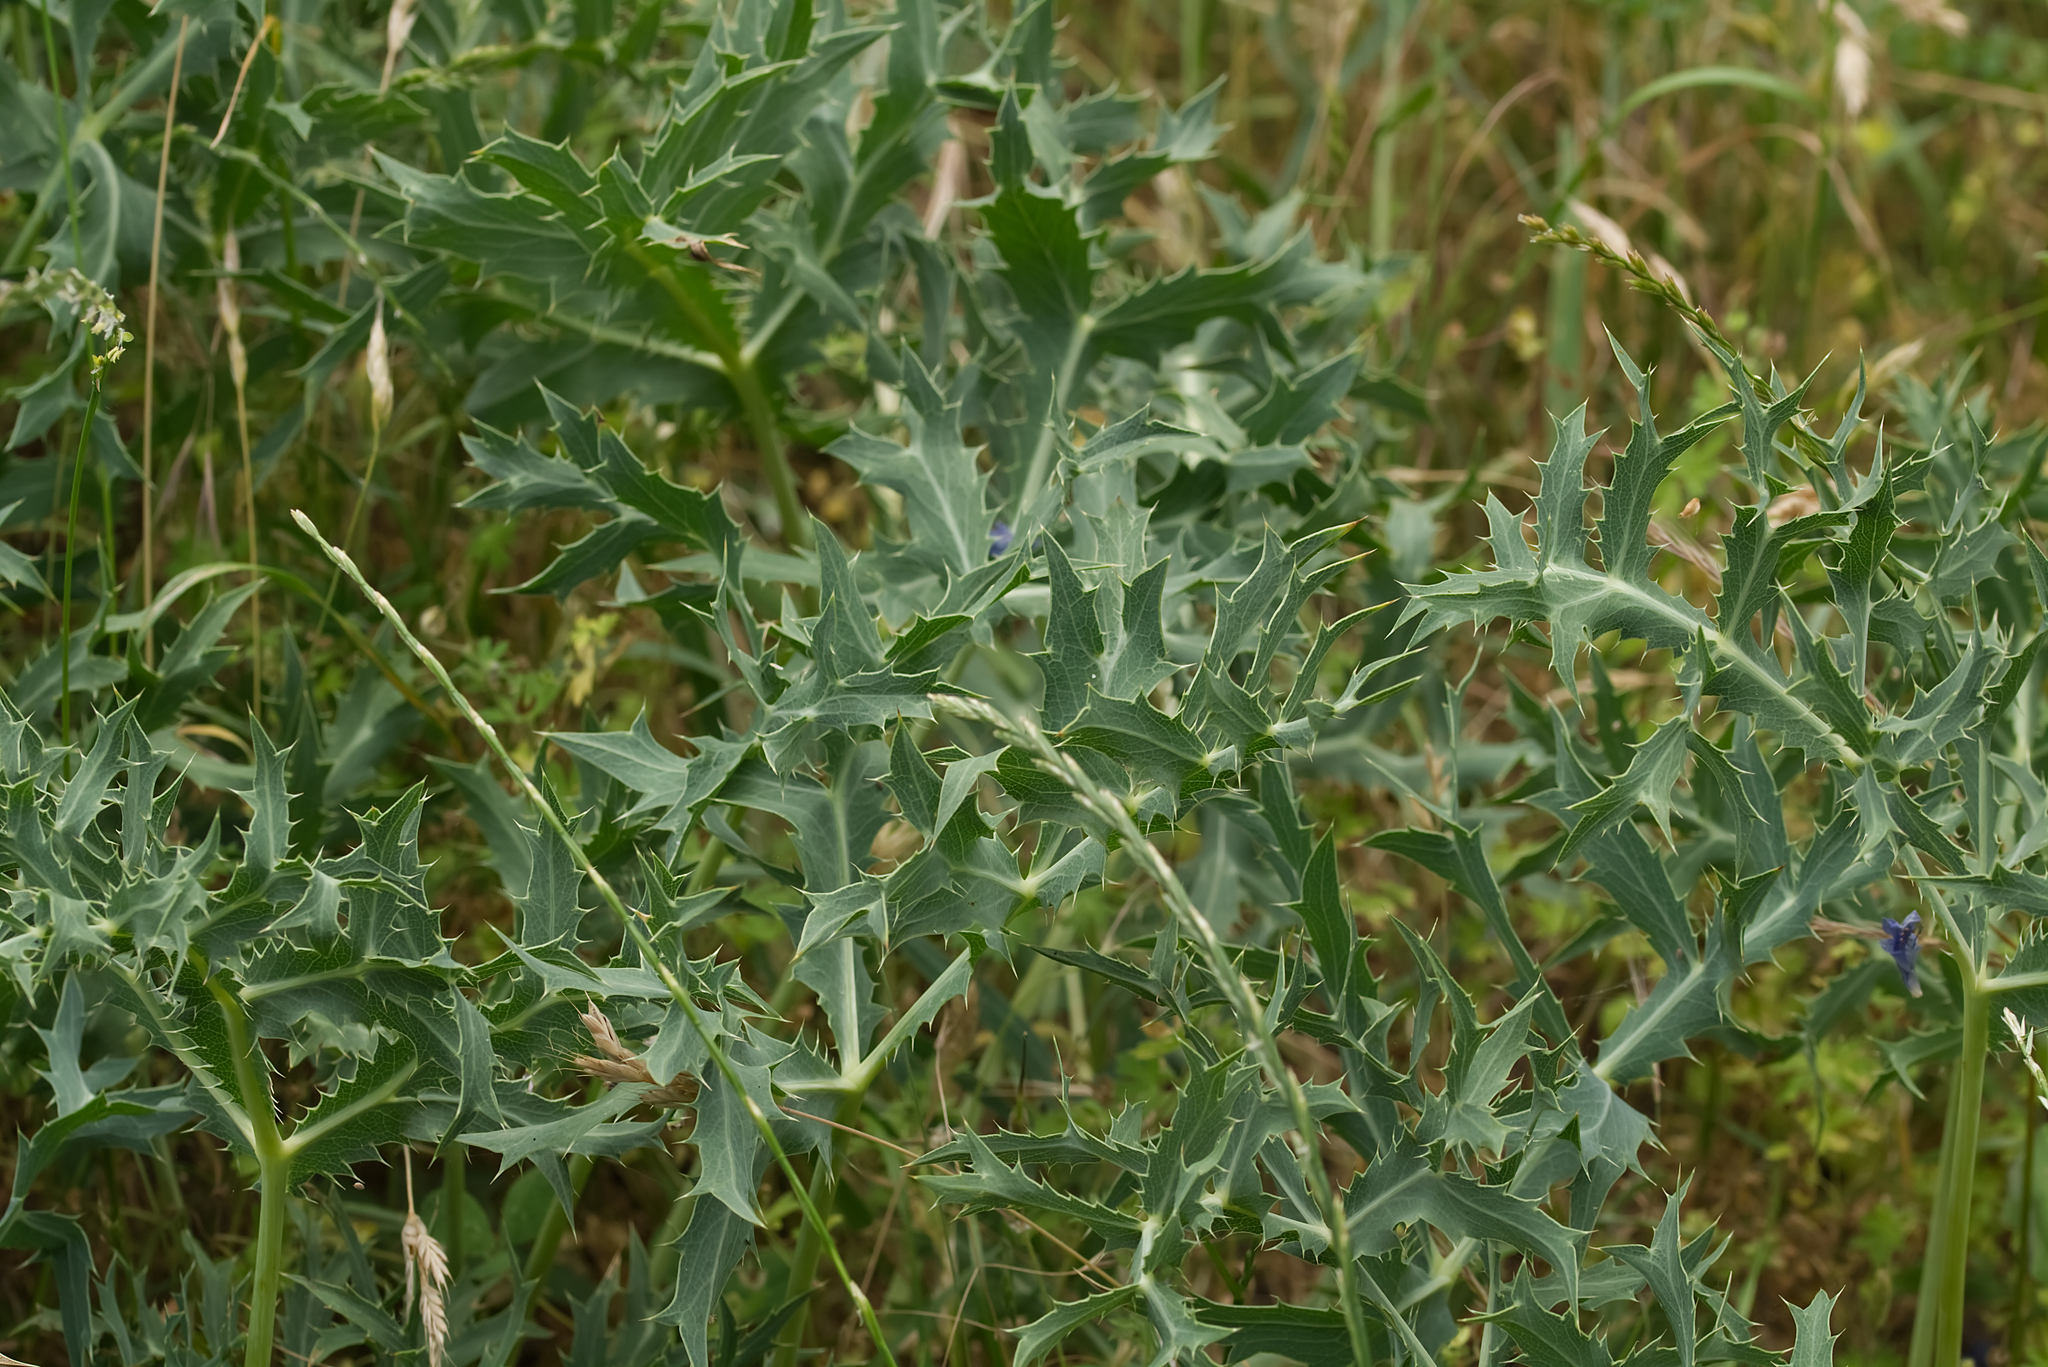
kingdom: Plantae
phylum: Tracheophyta
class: Magnoliopsida
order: Apiales
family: Apiaceae
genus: Eryngium
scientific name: Eryngium campestre
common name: Field eryngo
